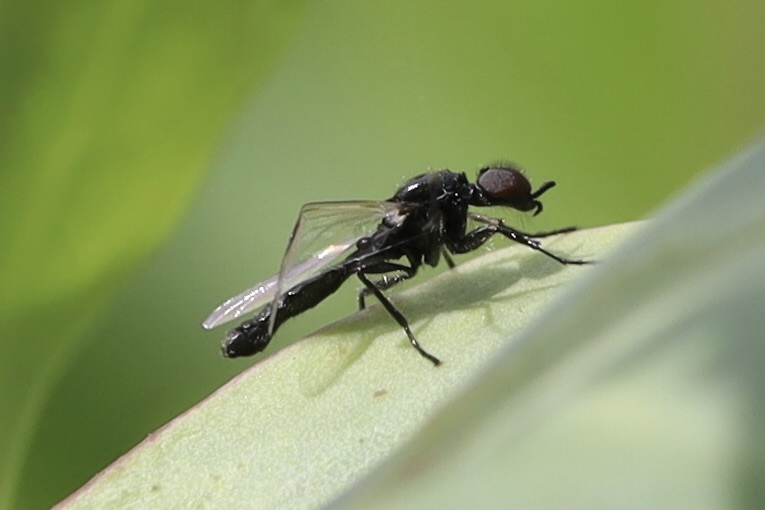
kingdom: Animalia
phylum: Arthropoda
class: Insecta
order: Diptera
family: Bibionidae
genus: Dilophus
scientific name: Dilophus
